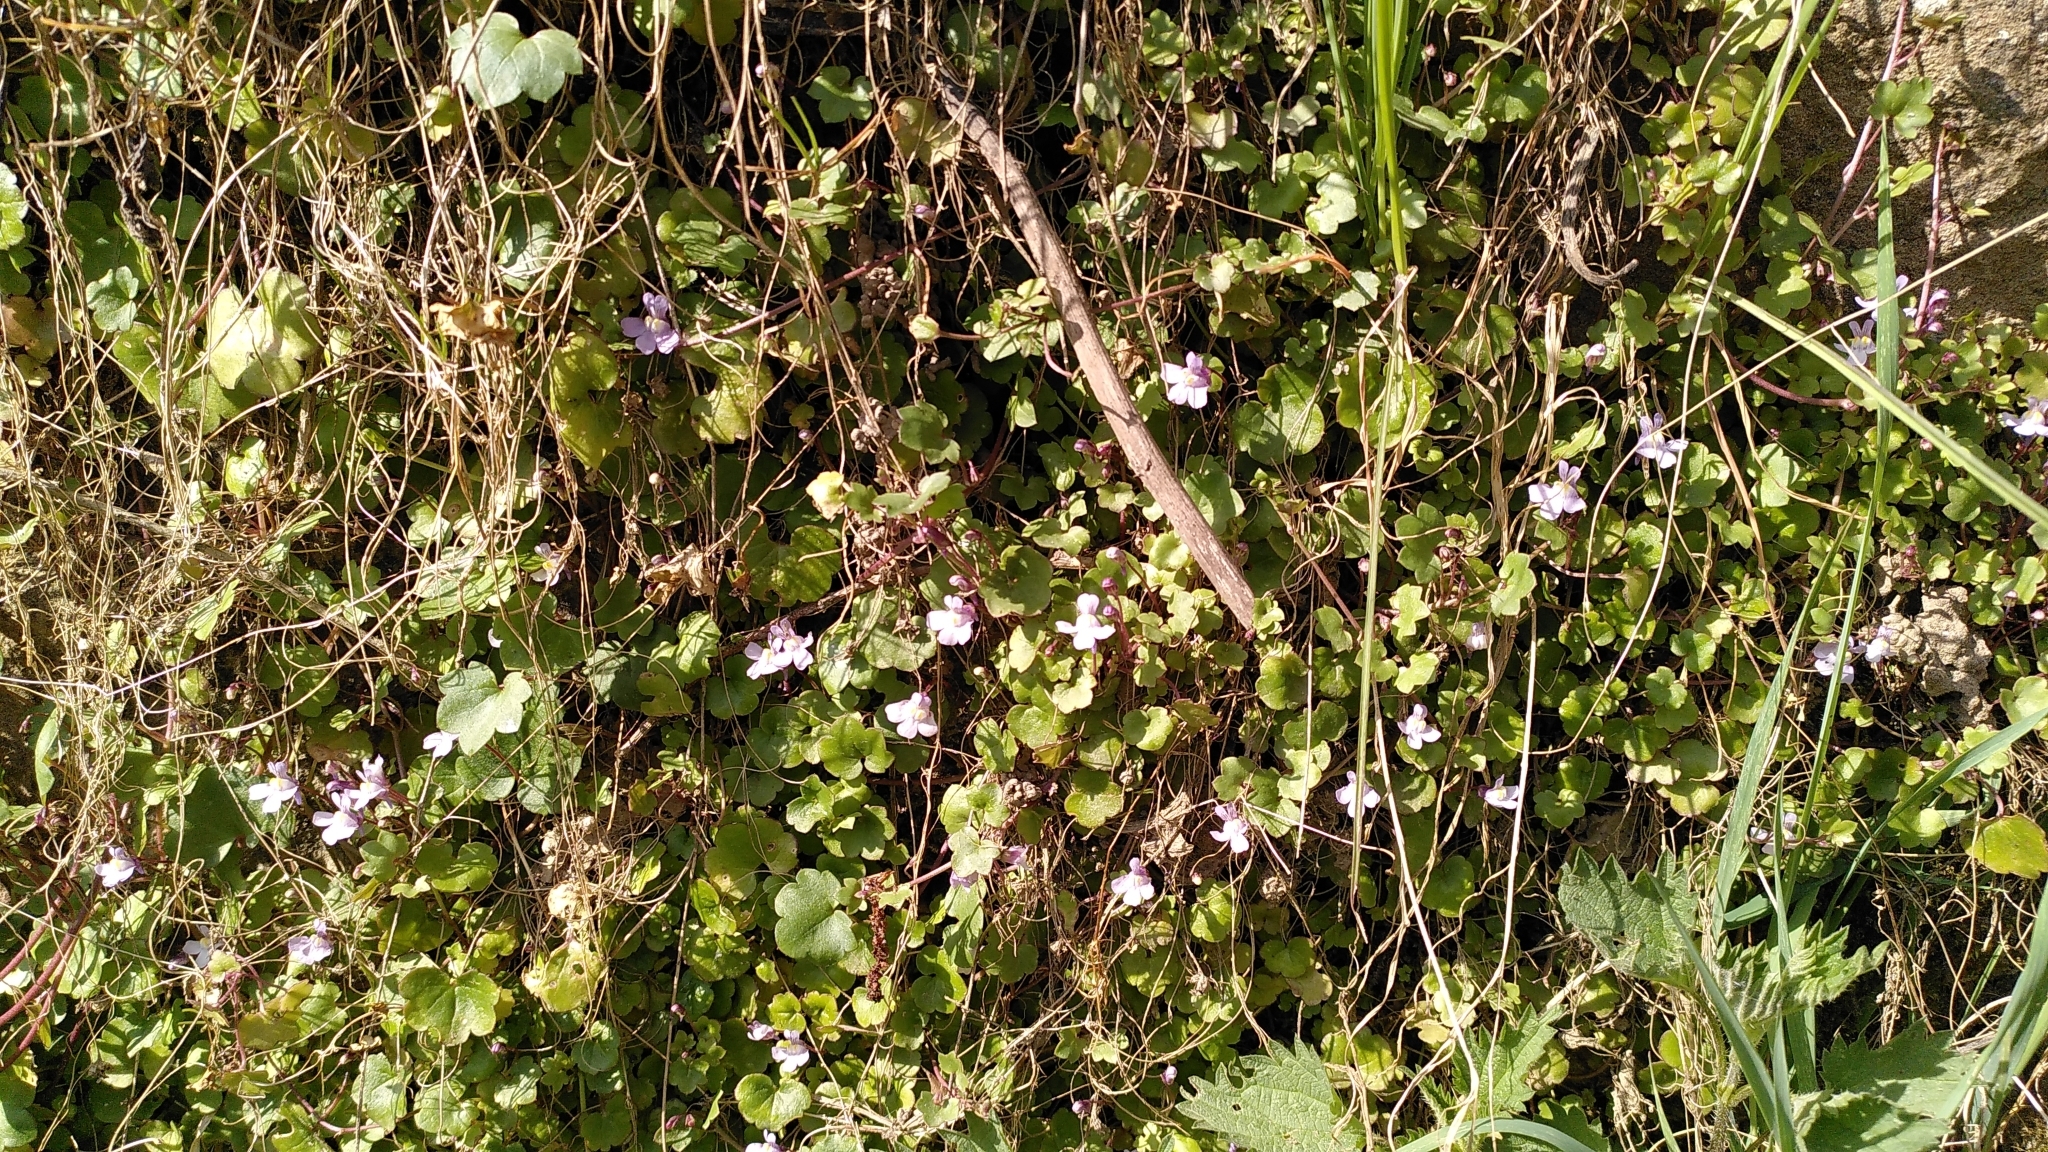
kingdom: Plantae
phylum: Tracheophyta
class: Magnoliopsida
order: Lamiales
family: Plantaginaceae
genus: Cymbalaria
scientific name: Cymbalaria muralis
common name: Ivy-leaved toadflax
